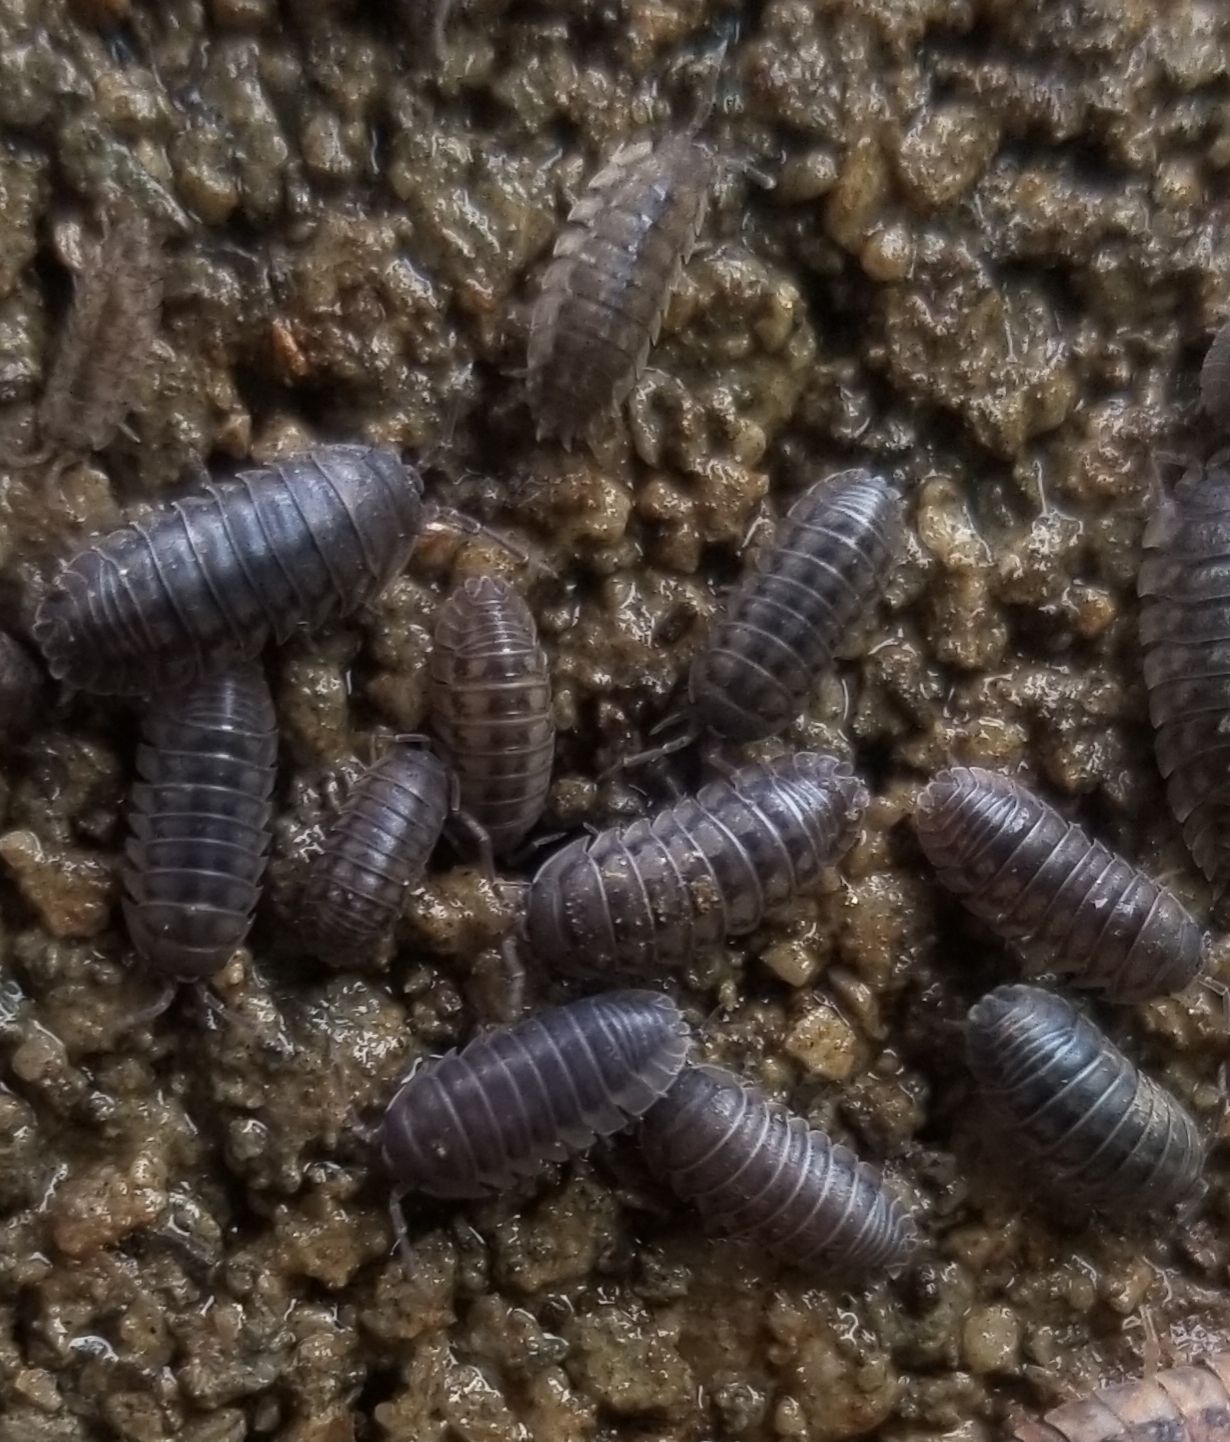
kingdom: Animalia
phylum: Arthropoda
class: Malacostraca
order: Isopoda
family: Armadillidiidae
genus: Armadillidium
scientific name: Armadillidium nasatum
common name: Isopod
